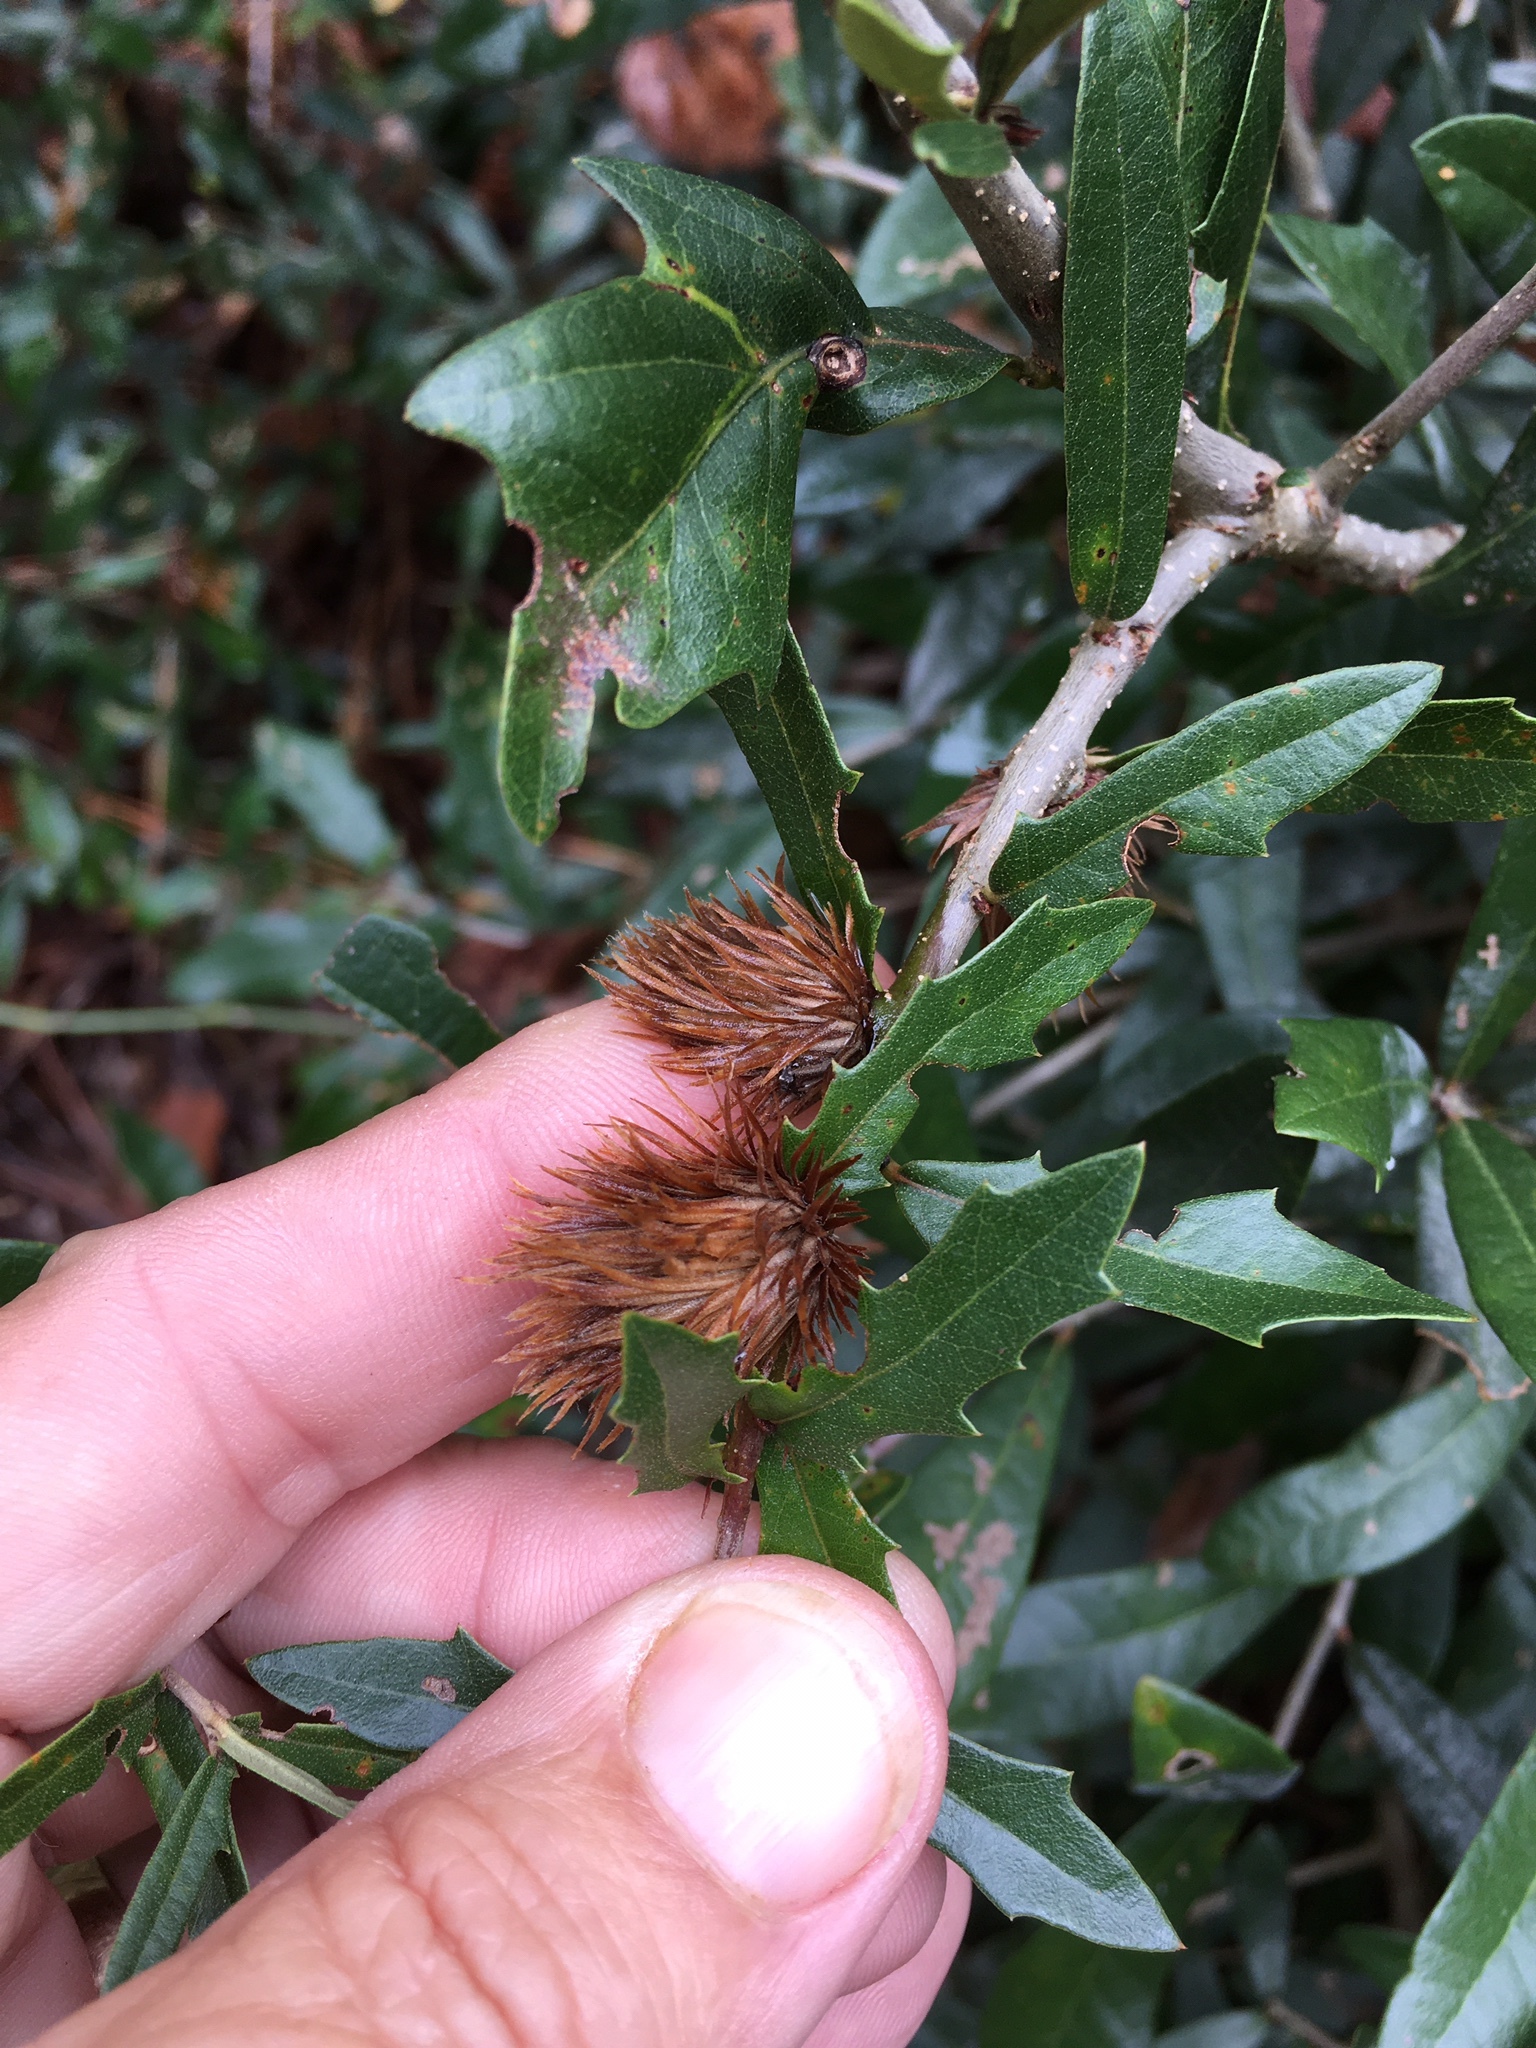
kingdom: Animalia
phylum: Arthropoda
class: Insecta
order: Hymenoptera
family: Cynipidae
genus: Andricus
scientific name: Andricus quercusfoliatus
